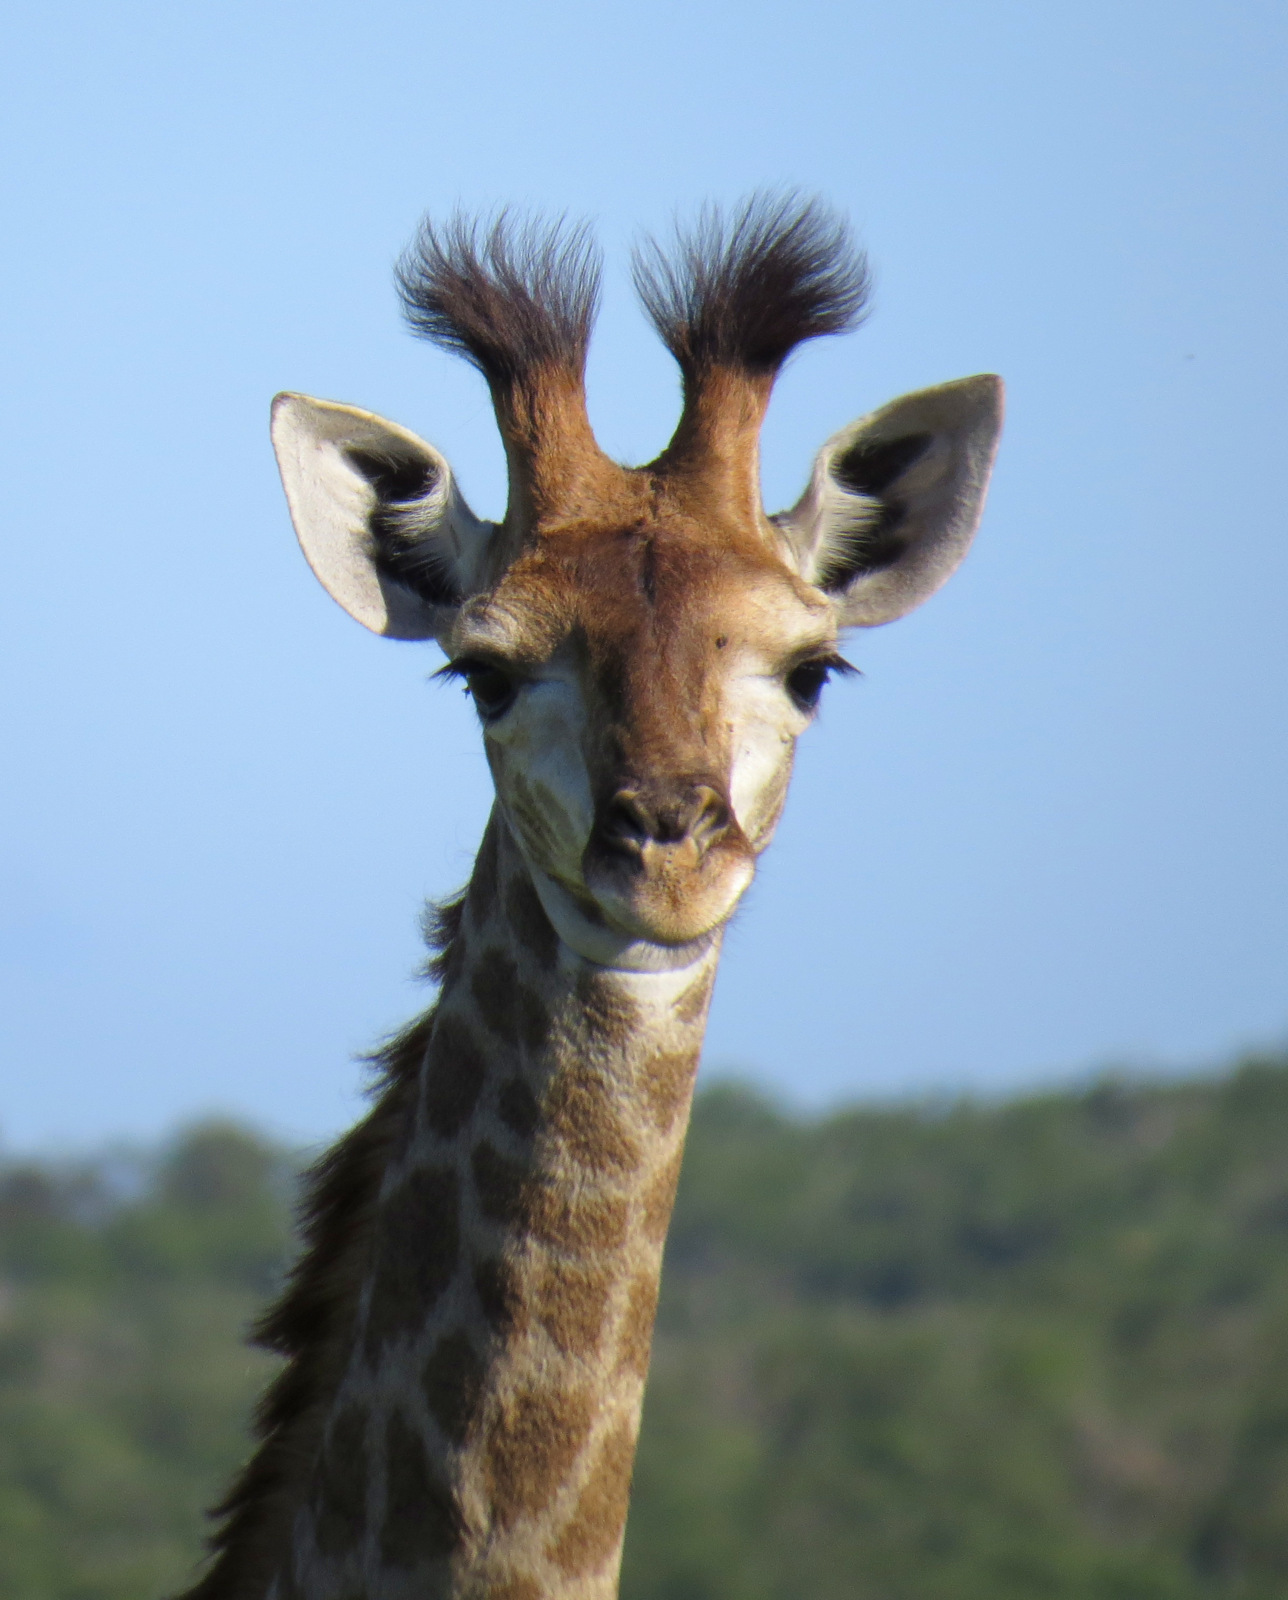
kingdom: Animalia
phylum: Chordata
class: Mammalia
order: Artiodactyla
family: Giraffidae
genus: Giraffa
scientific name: Giraffa giraffa
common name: Southern giraffe
